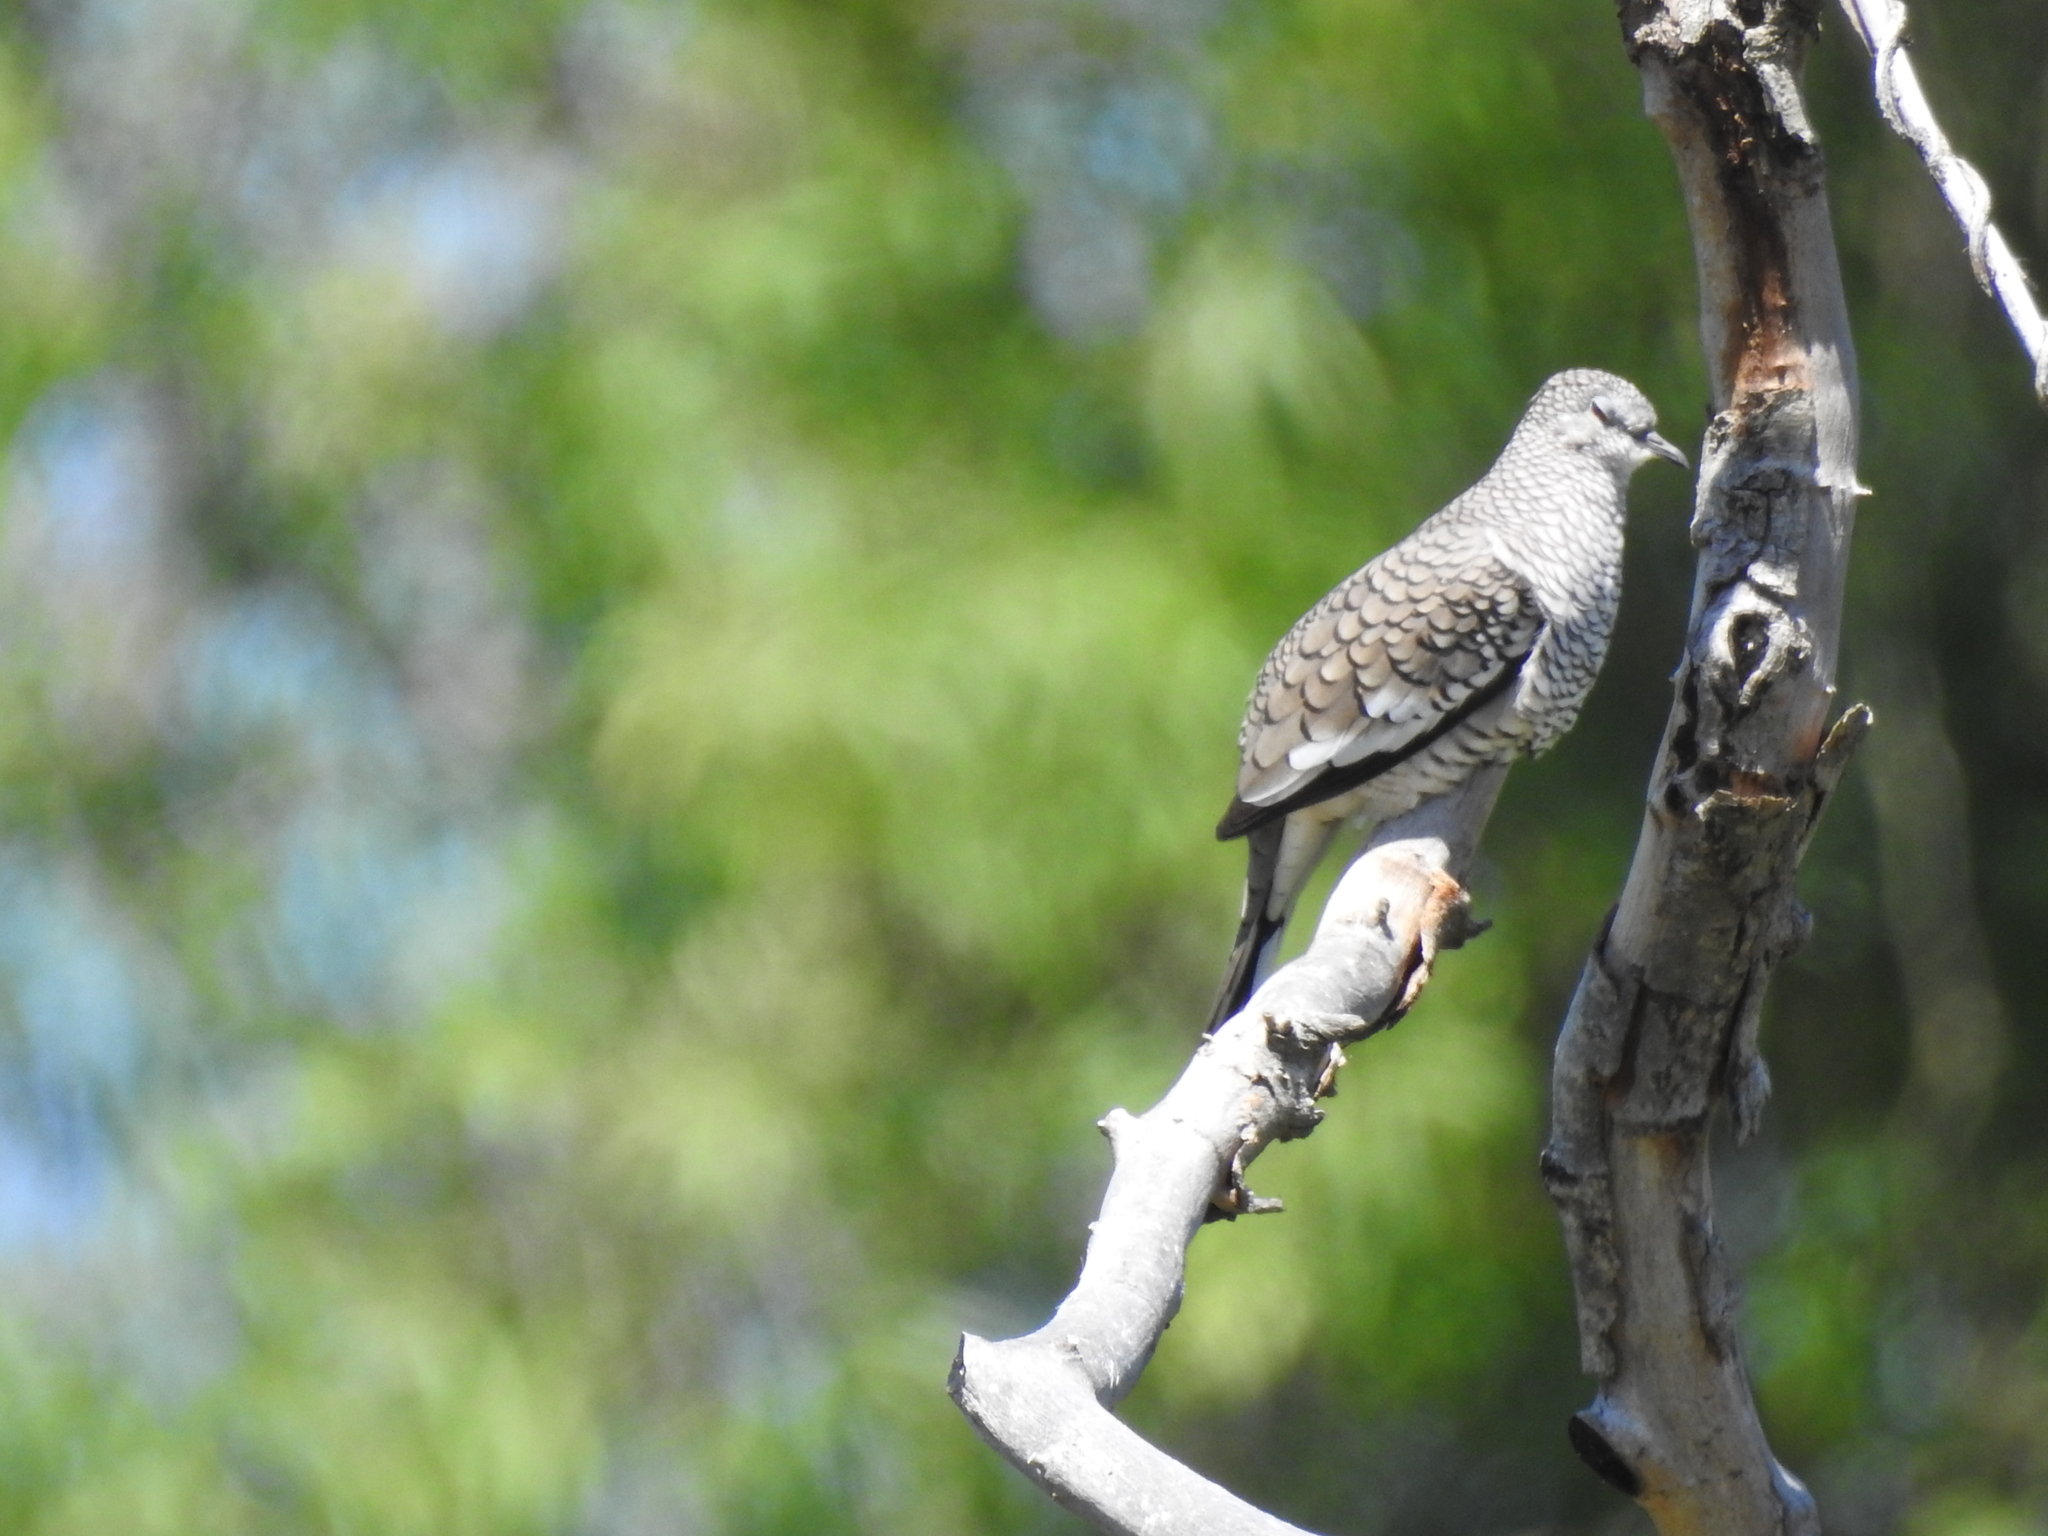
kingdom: Animalia
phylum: Chordata
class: Aves
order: Columbiformes
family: Columbidae
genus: Columbina
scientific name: Columbina squammata
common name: Scaled dove
